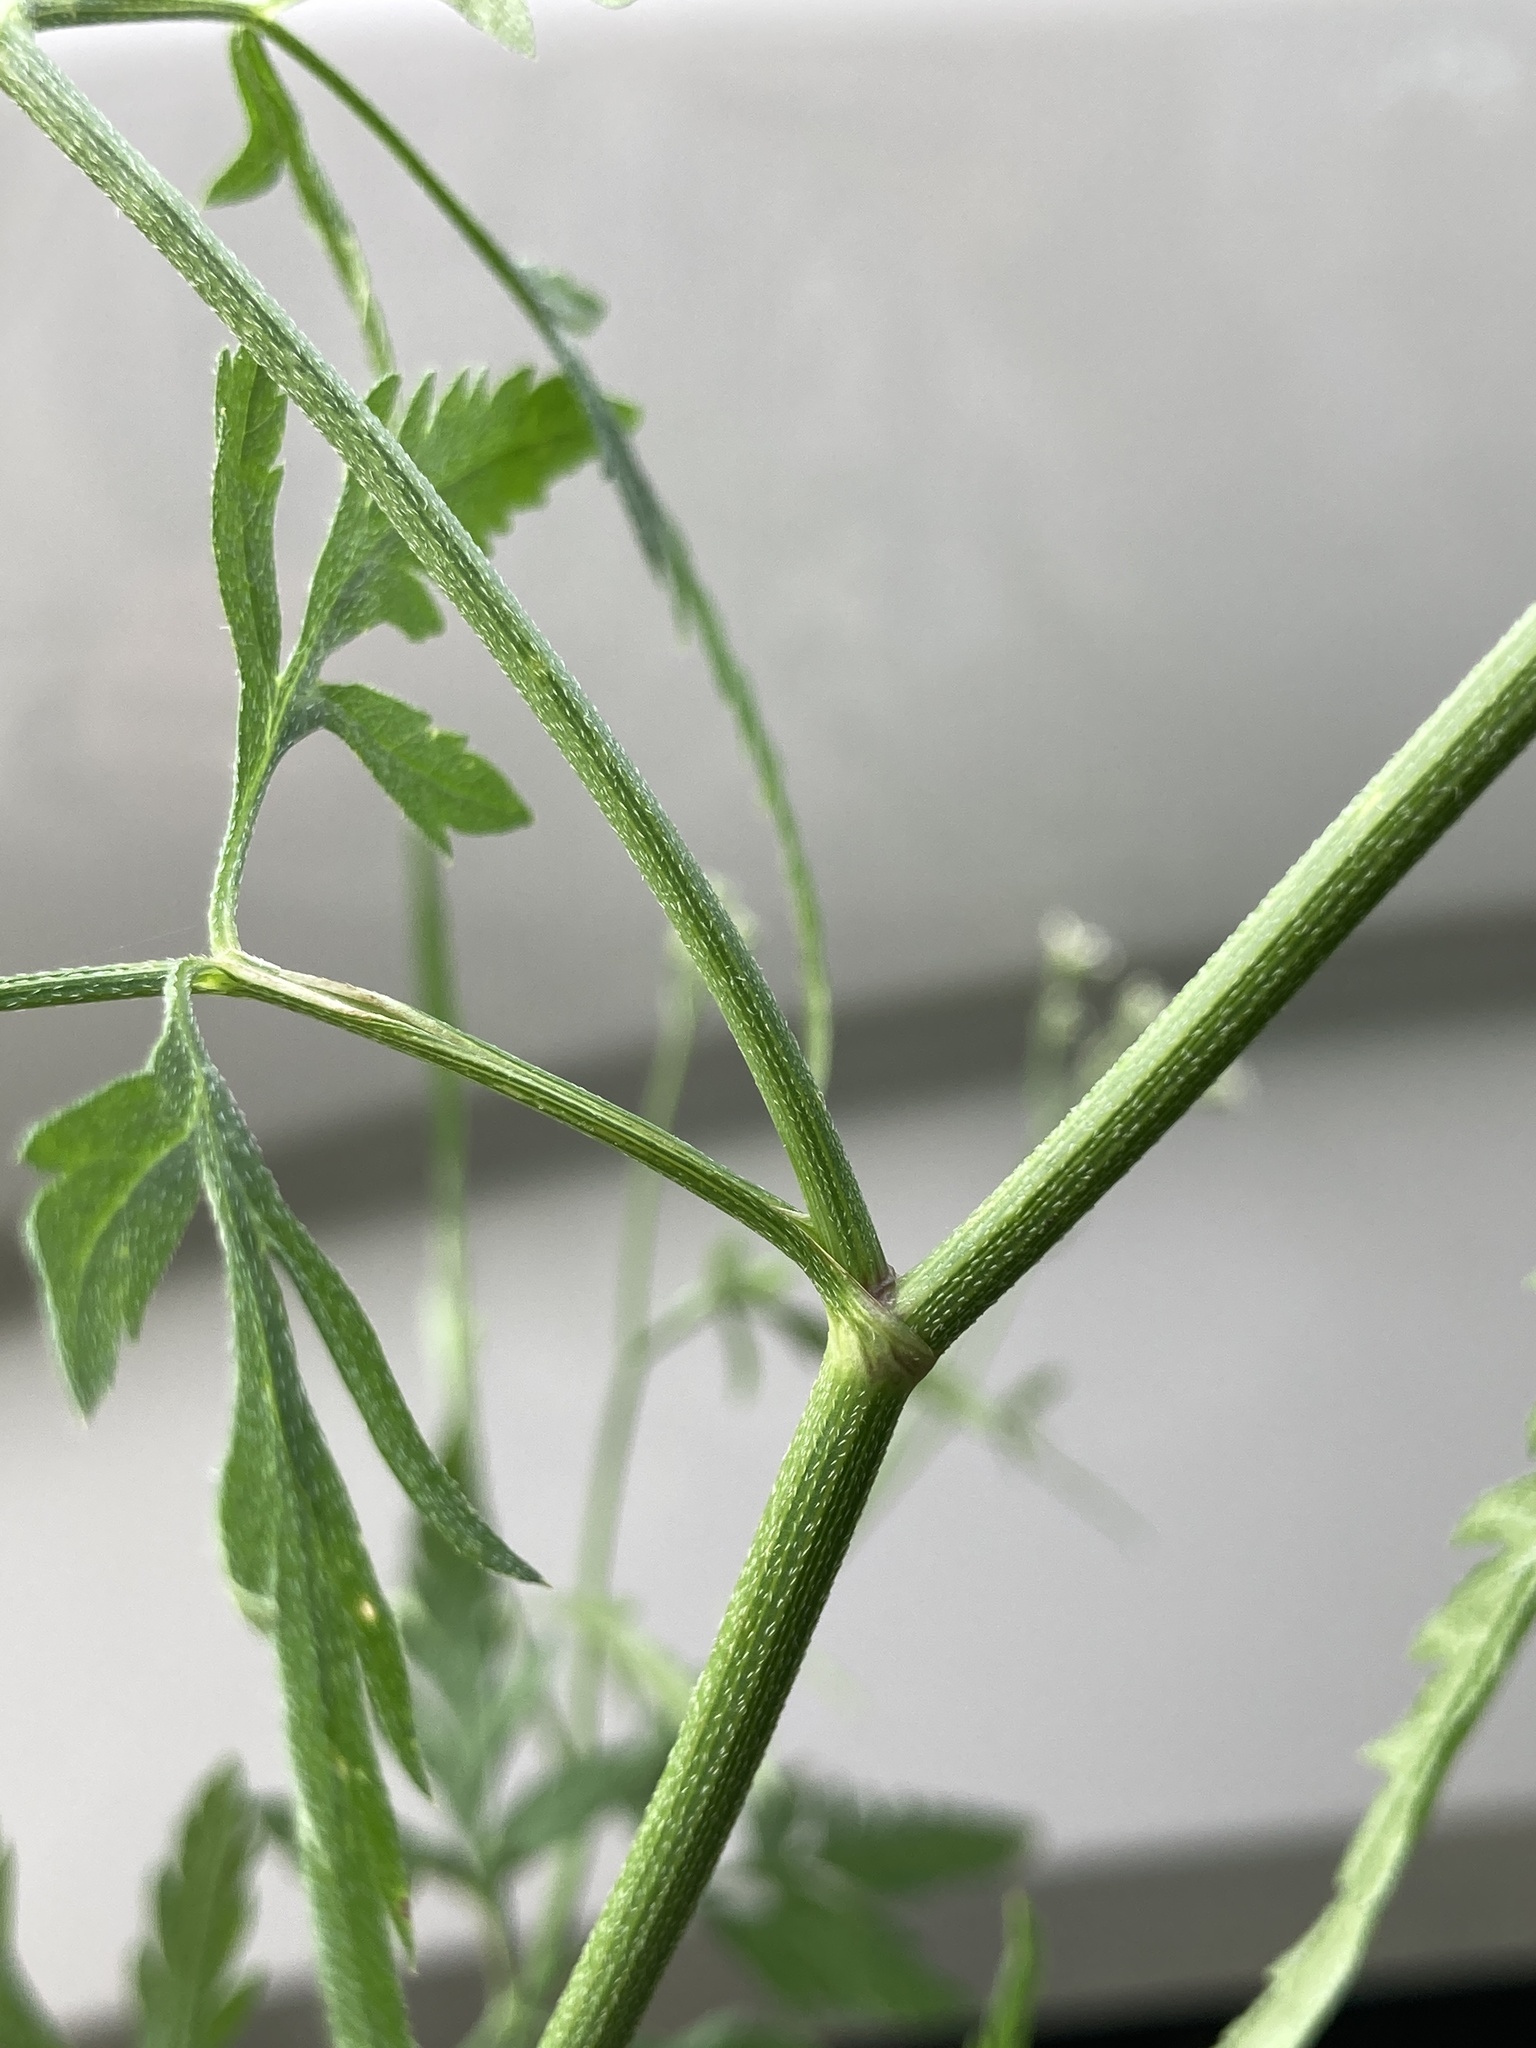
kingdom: Plantae
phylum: Tracheophyta
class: Magnoliopsida
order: Apiales
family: Apiaceae
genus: Torilis
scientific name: Torilis arvensis
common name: Spreading hedge-parsley
